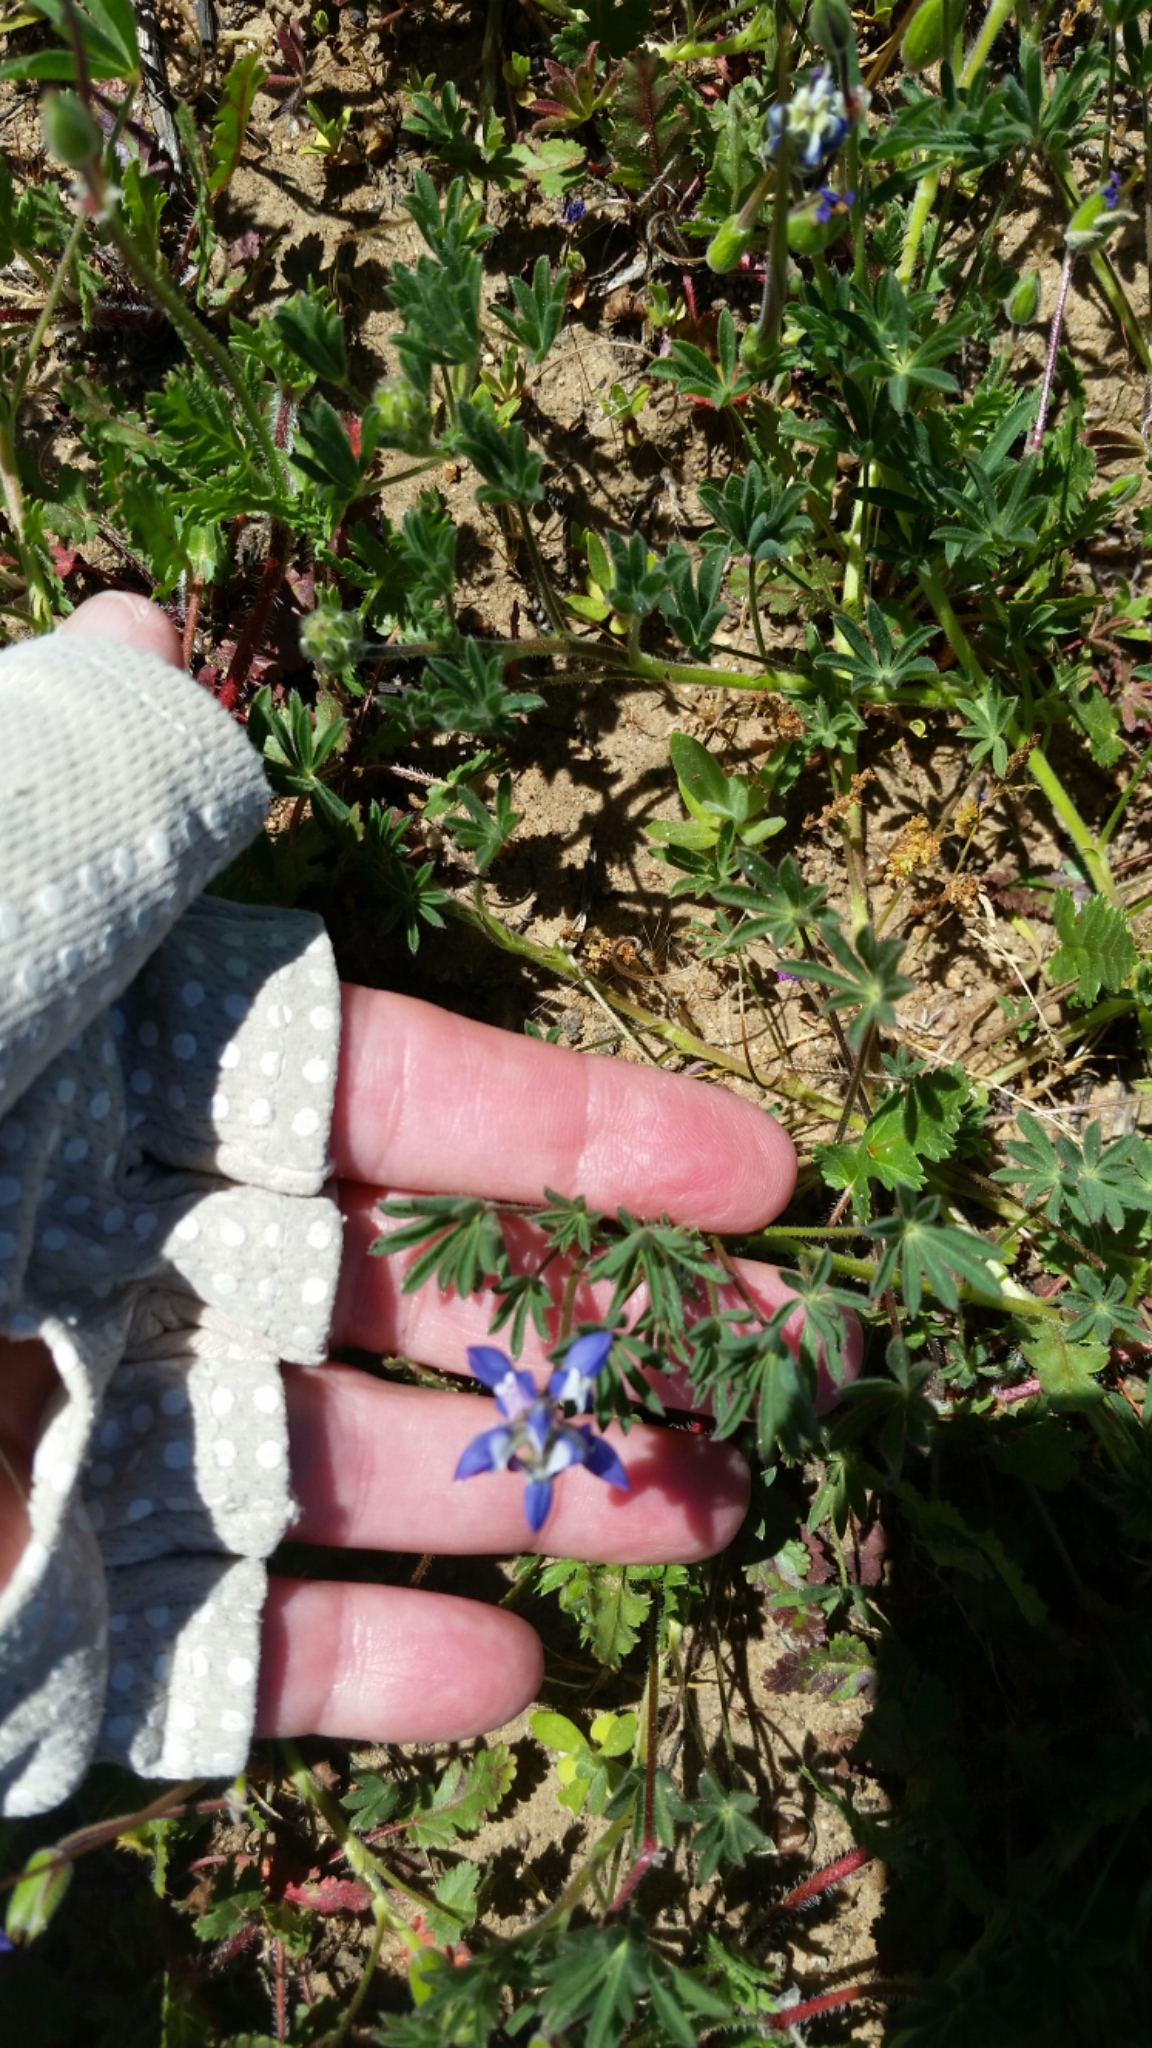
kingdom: Plantae
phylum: Tracheophyta
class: Magnoliopsida
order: Fabales
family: Fabaceae
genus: Lupinus
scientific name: Lupinus bicolor
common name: Miniature lupine
